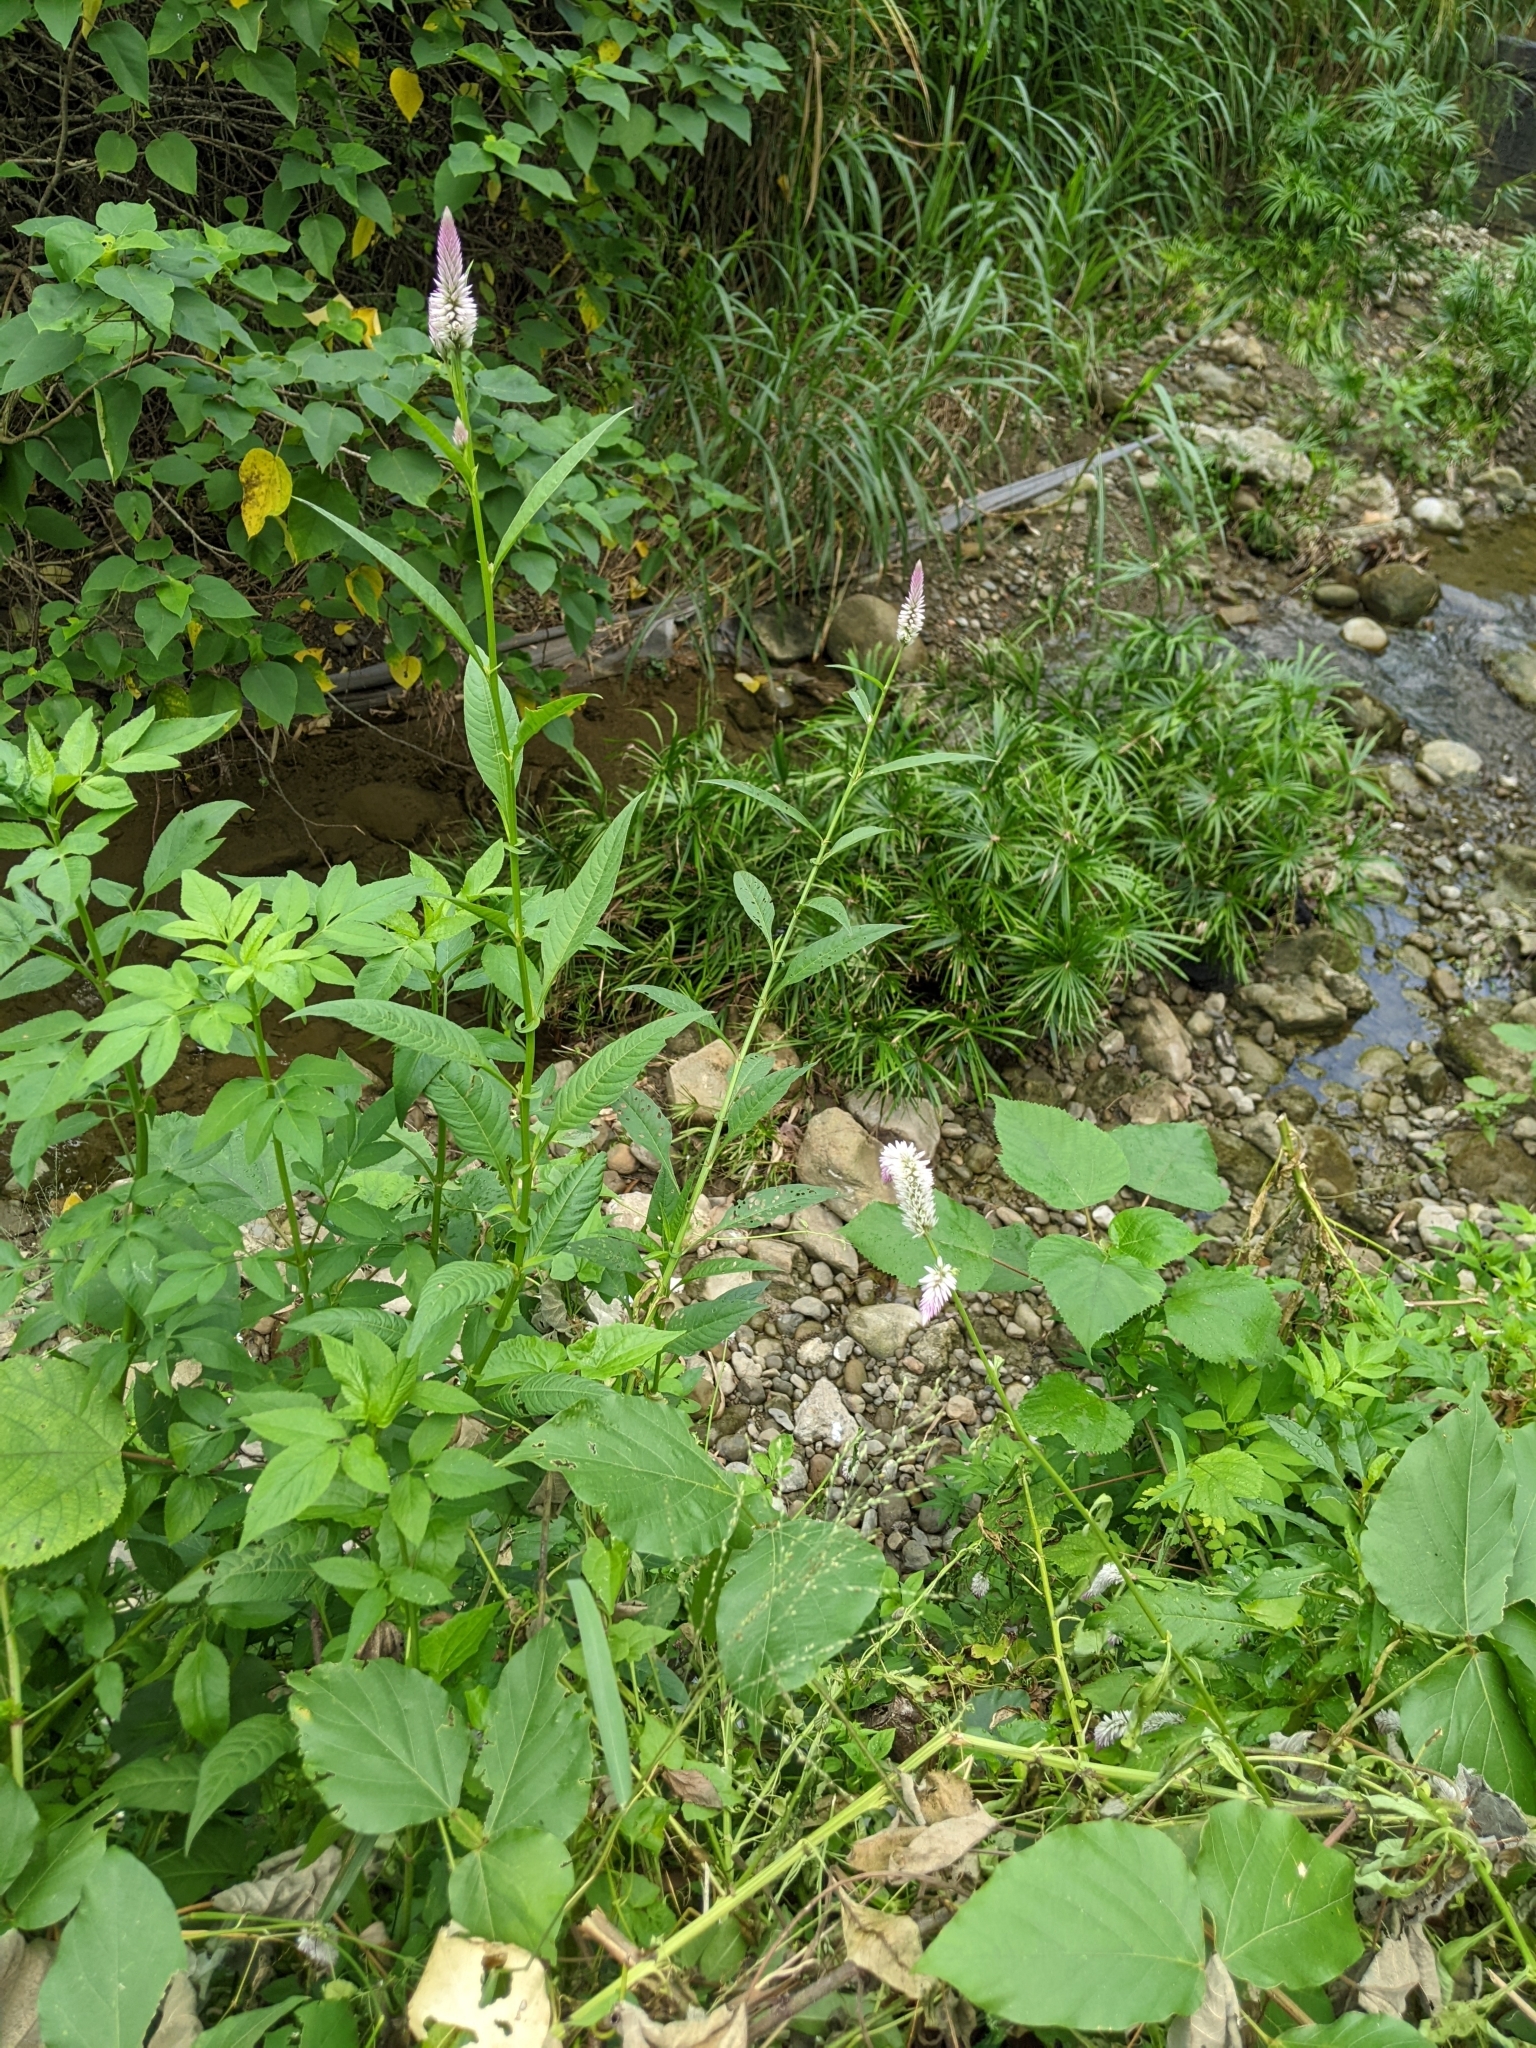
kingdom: Plantae
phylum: Tracheophyta
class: Magnoliopsida
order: Caryophyllales
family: Amaranthaceae
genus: Celosia
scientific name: Celosia argentea
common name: Feather cockscomb
